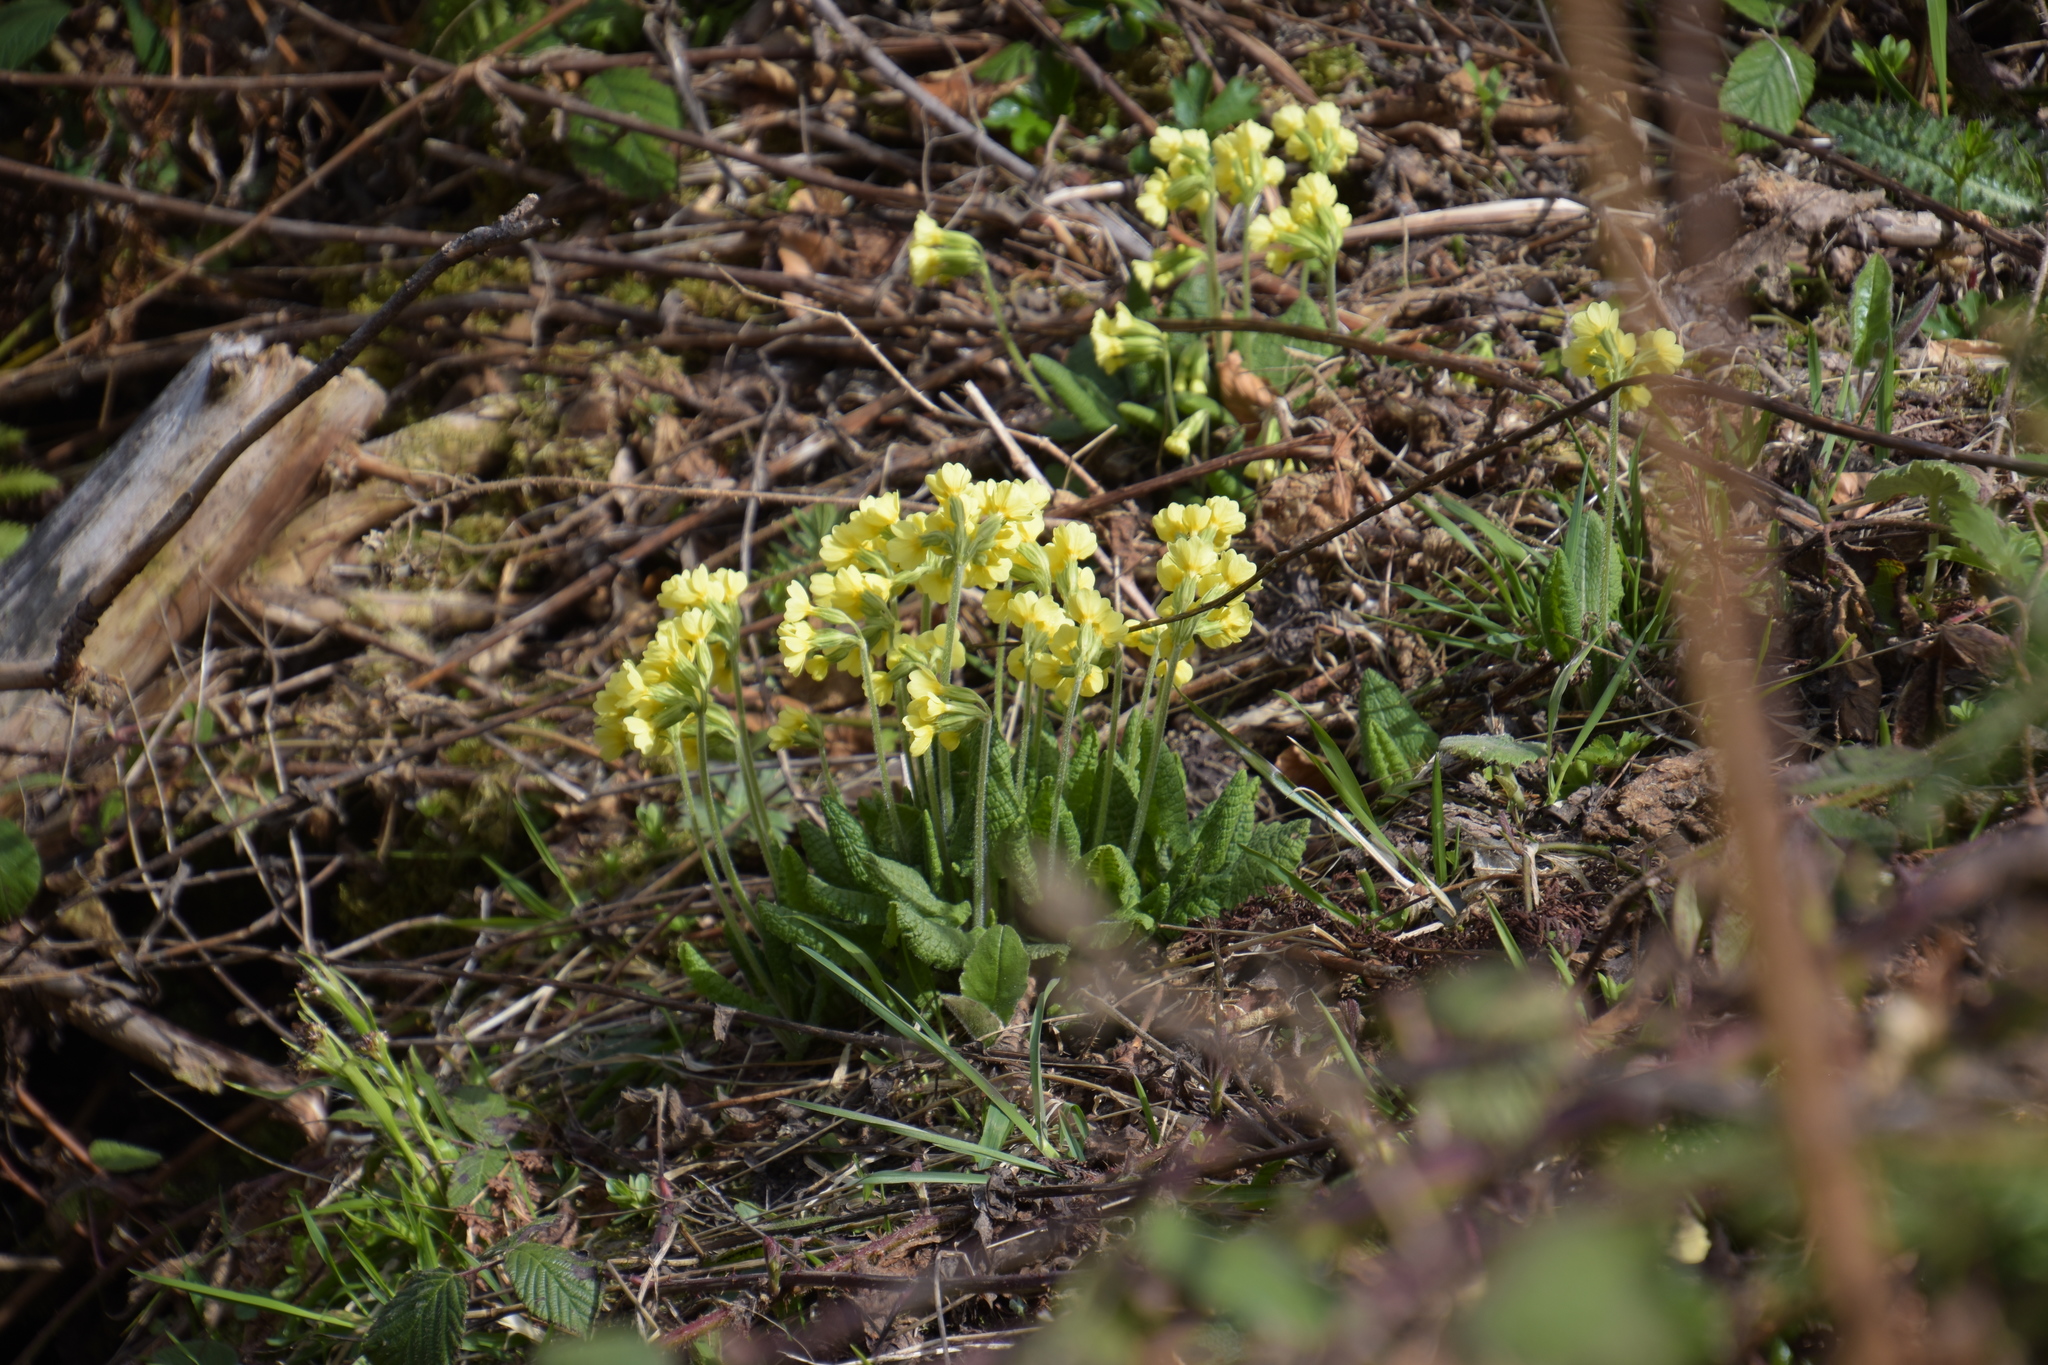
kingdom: Plantae
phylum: Tracheophyta
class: Magnoliopsida
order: Ericales
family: Primulaceae
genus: Primula
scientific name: Primula elatior
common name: Oxlip
